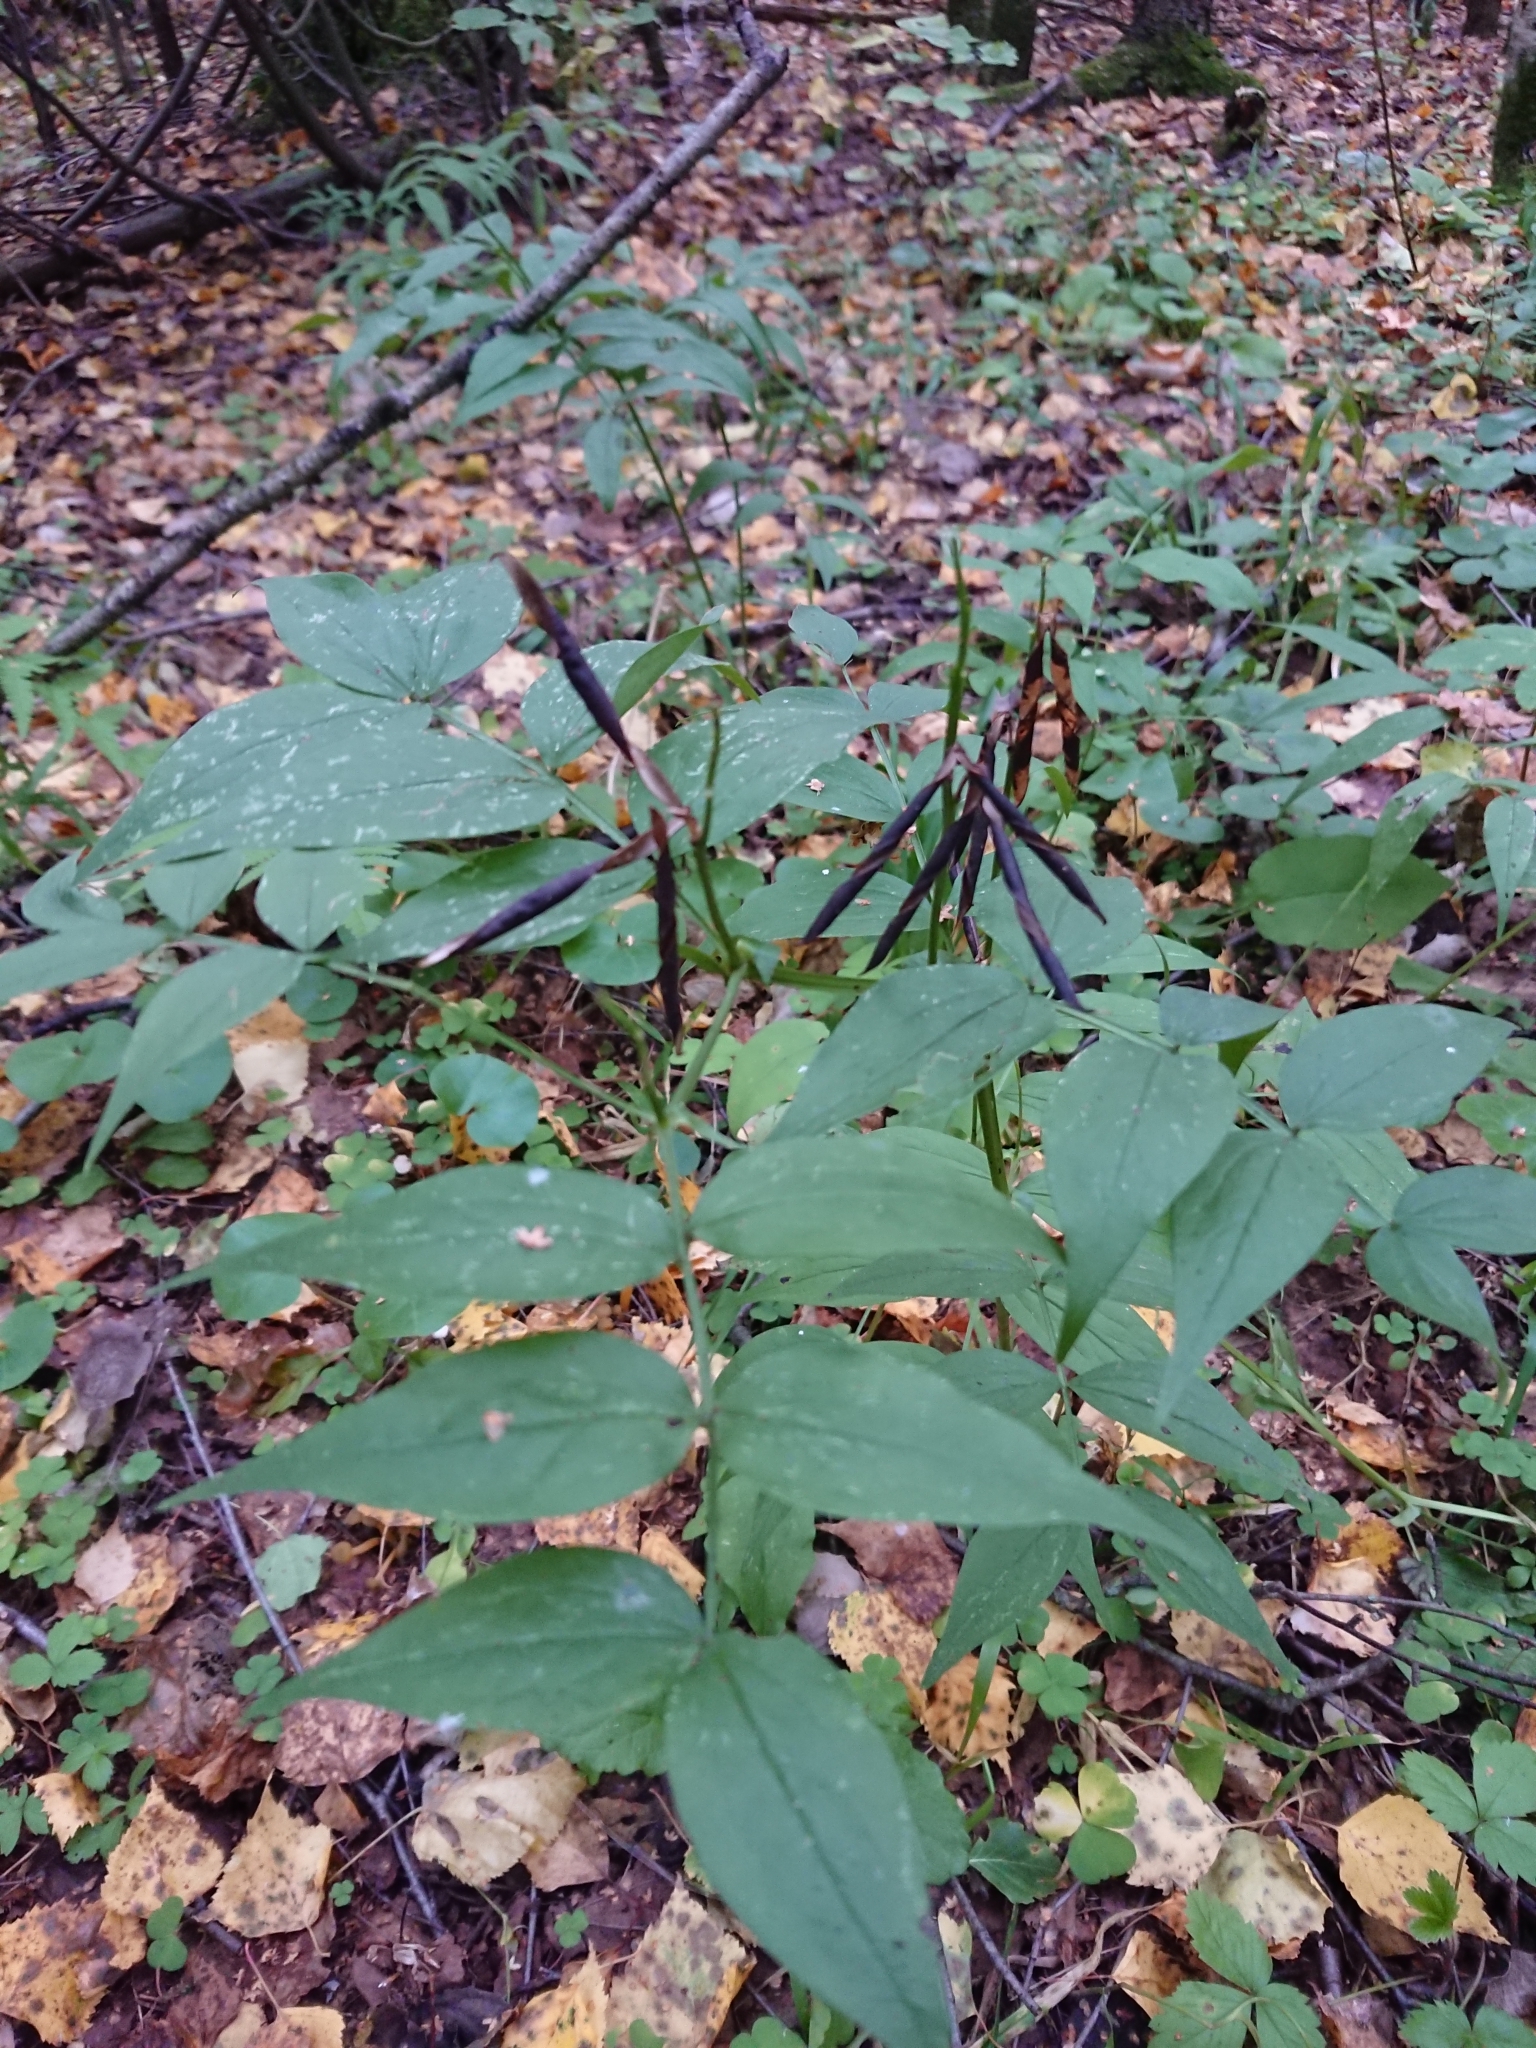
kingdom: Plantae
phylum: Tracheophyta
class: Magnoliopsida
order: Fabales
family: Fabaceae
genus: Lathyrus
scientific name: Lathyrus vernus
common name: Spring pea
